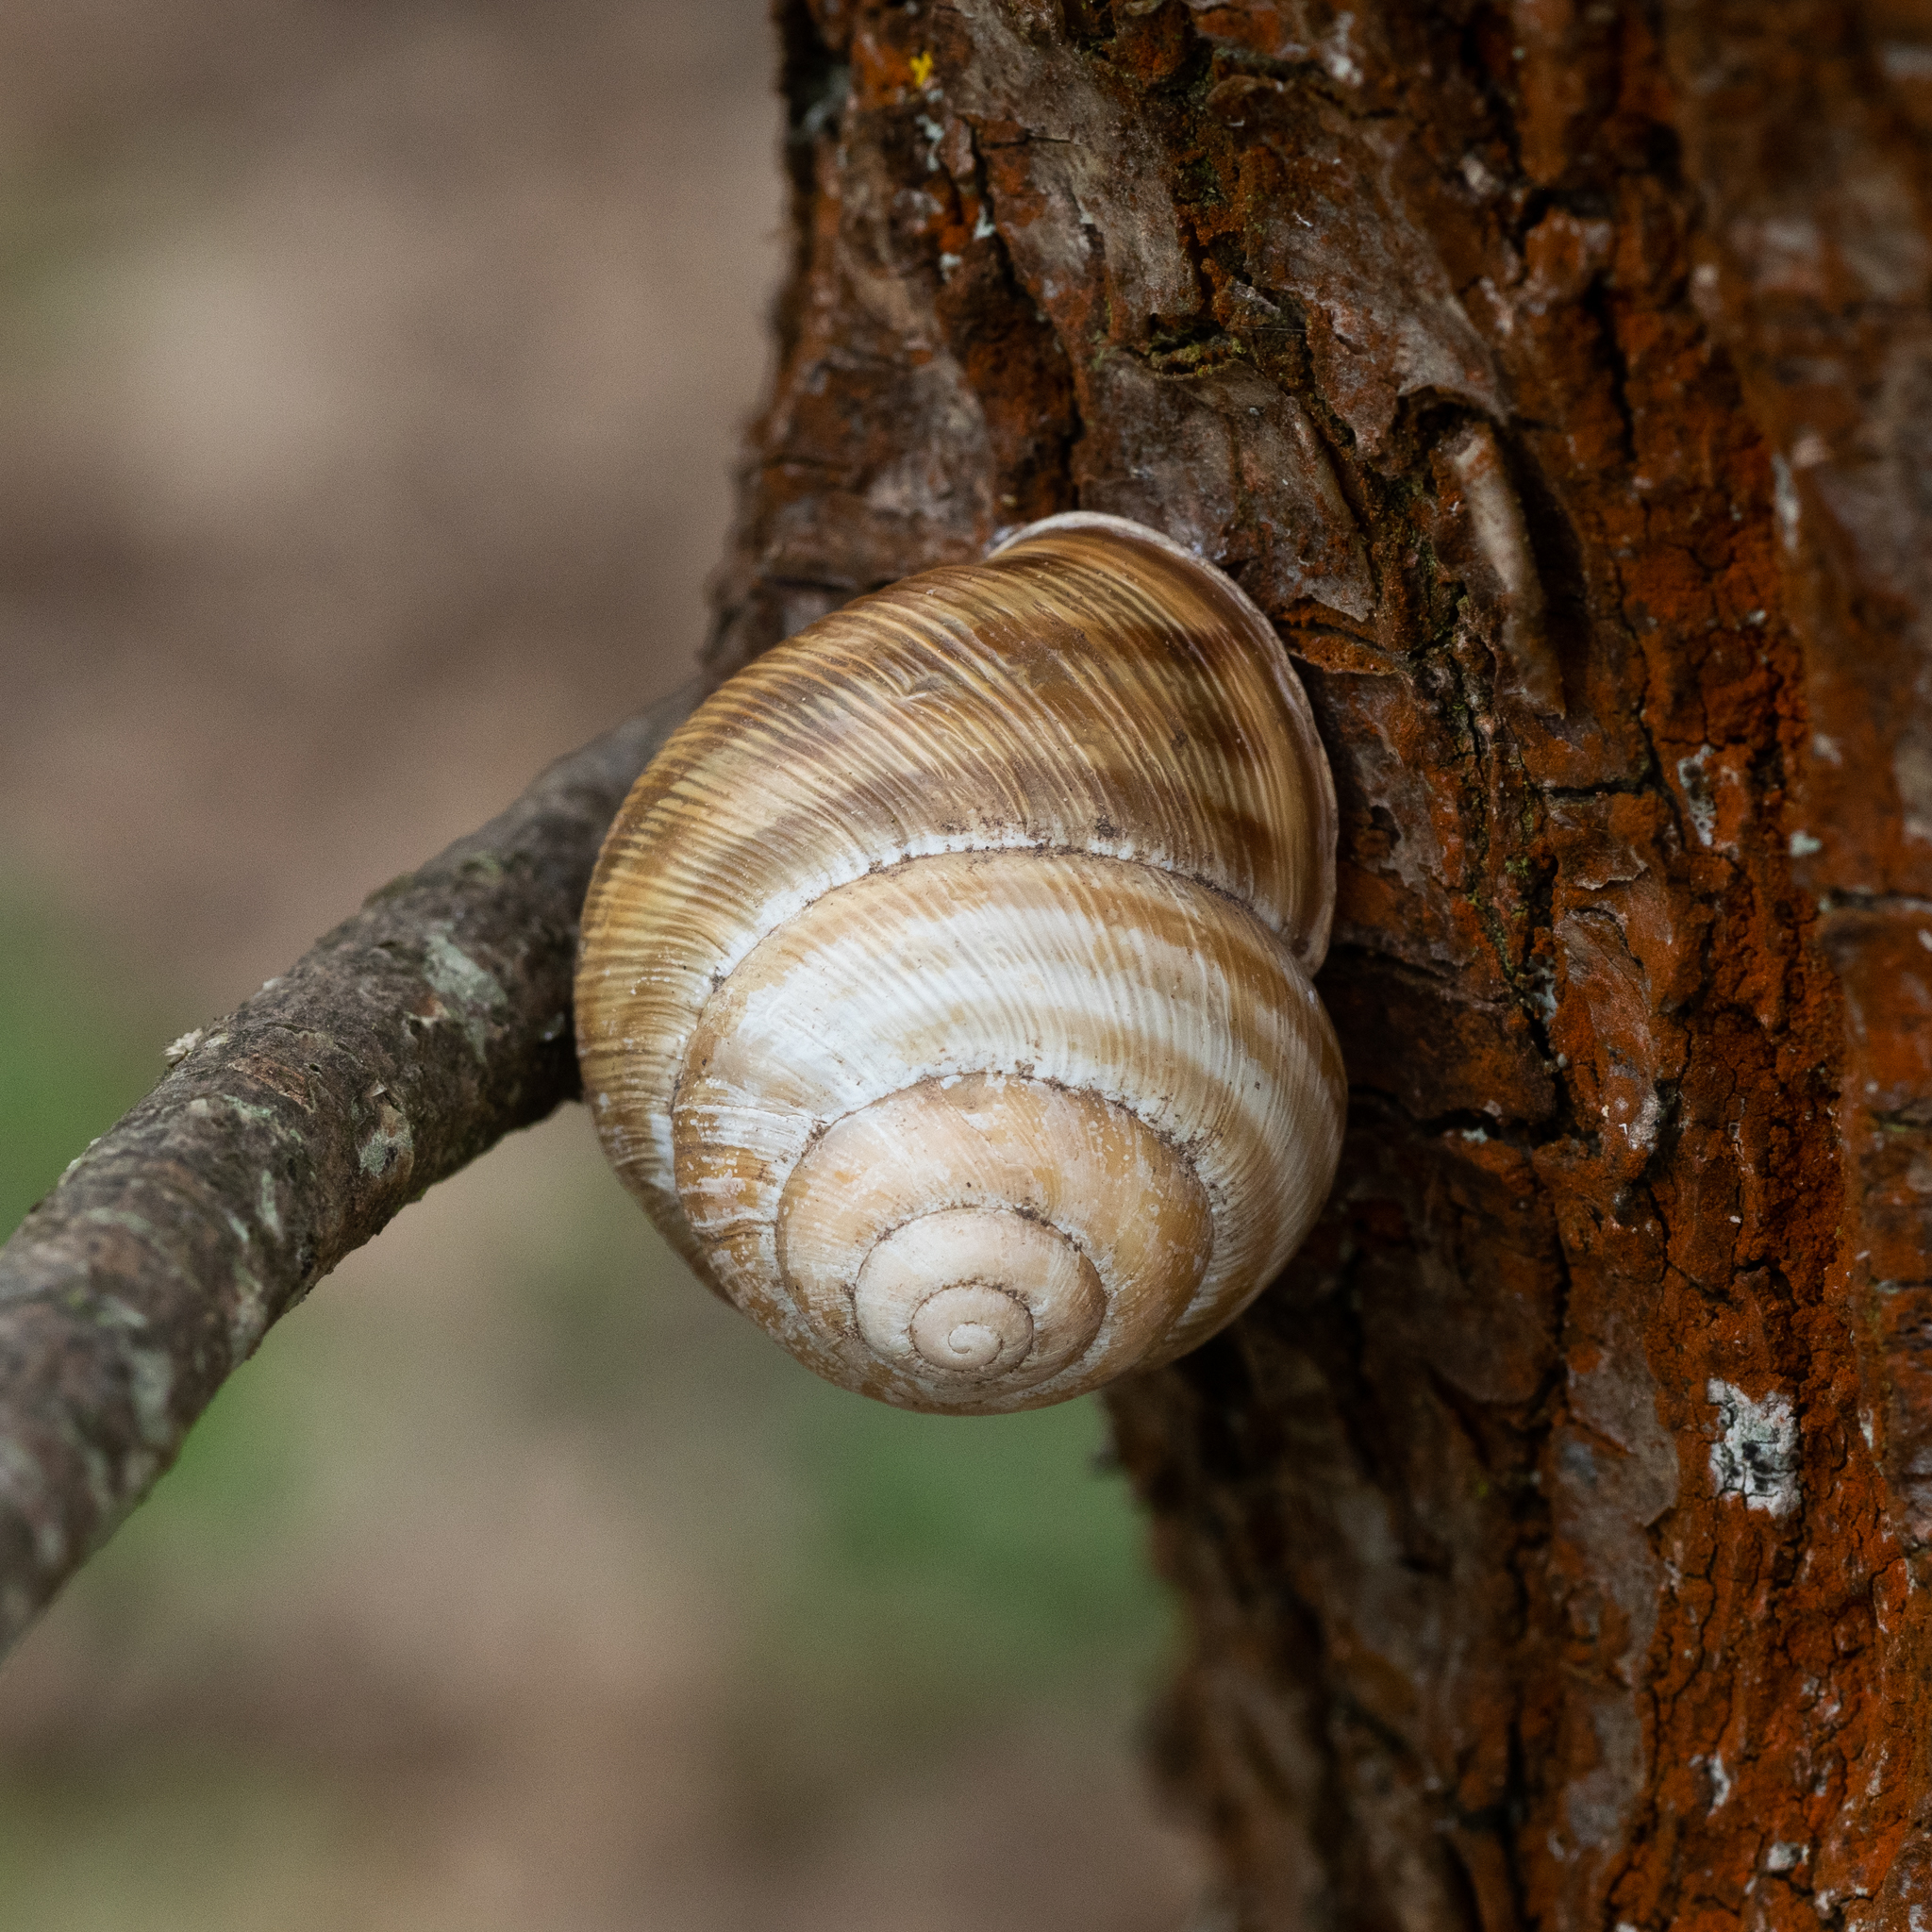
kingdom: Animalia
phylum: Mollusca
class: Gastropoda
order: Stylommatophora
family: Helicidae
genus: Caucasotachea
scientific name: Caucasotachea vindobonensis
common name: European helicid land snail
